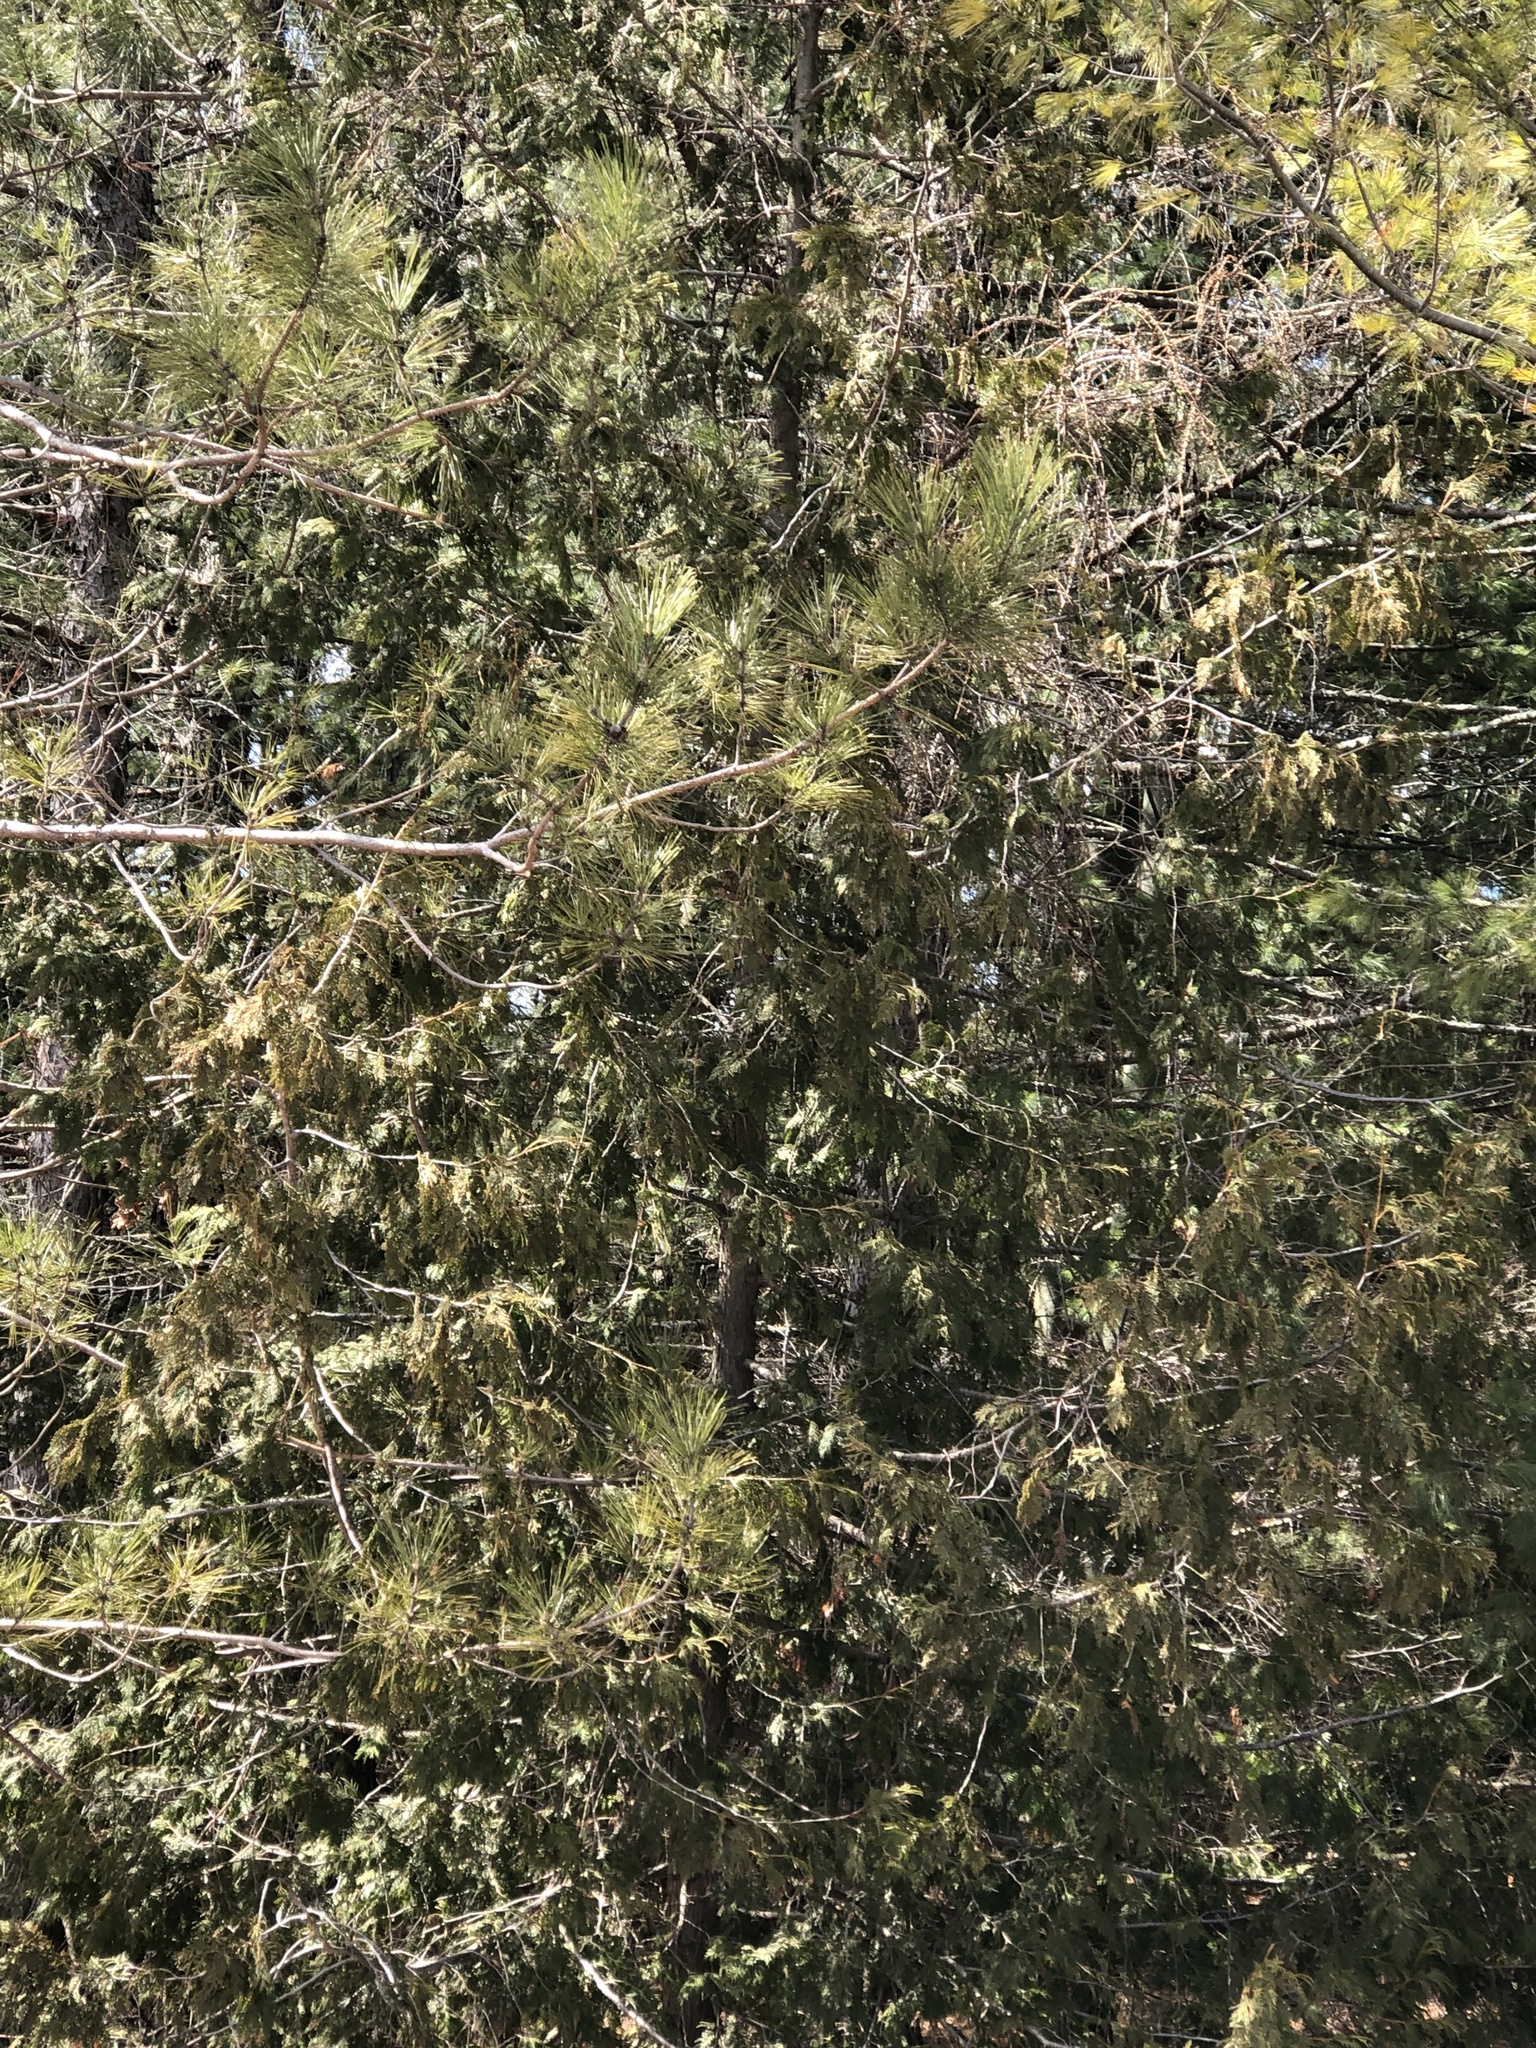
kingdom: Plantae
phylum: Tracheophyta
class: Pinopsida
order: Pinales
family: Cupressaceae
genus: Thuja
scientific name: Thuja occidentalis
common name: Northern white-cedar
